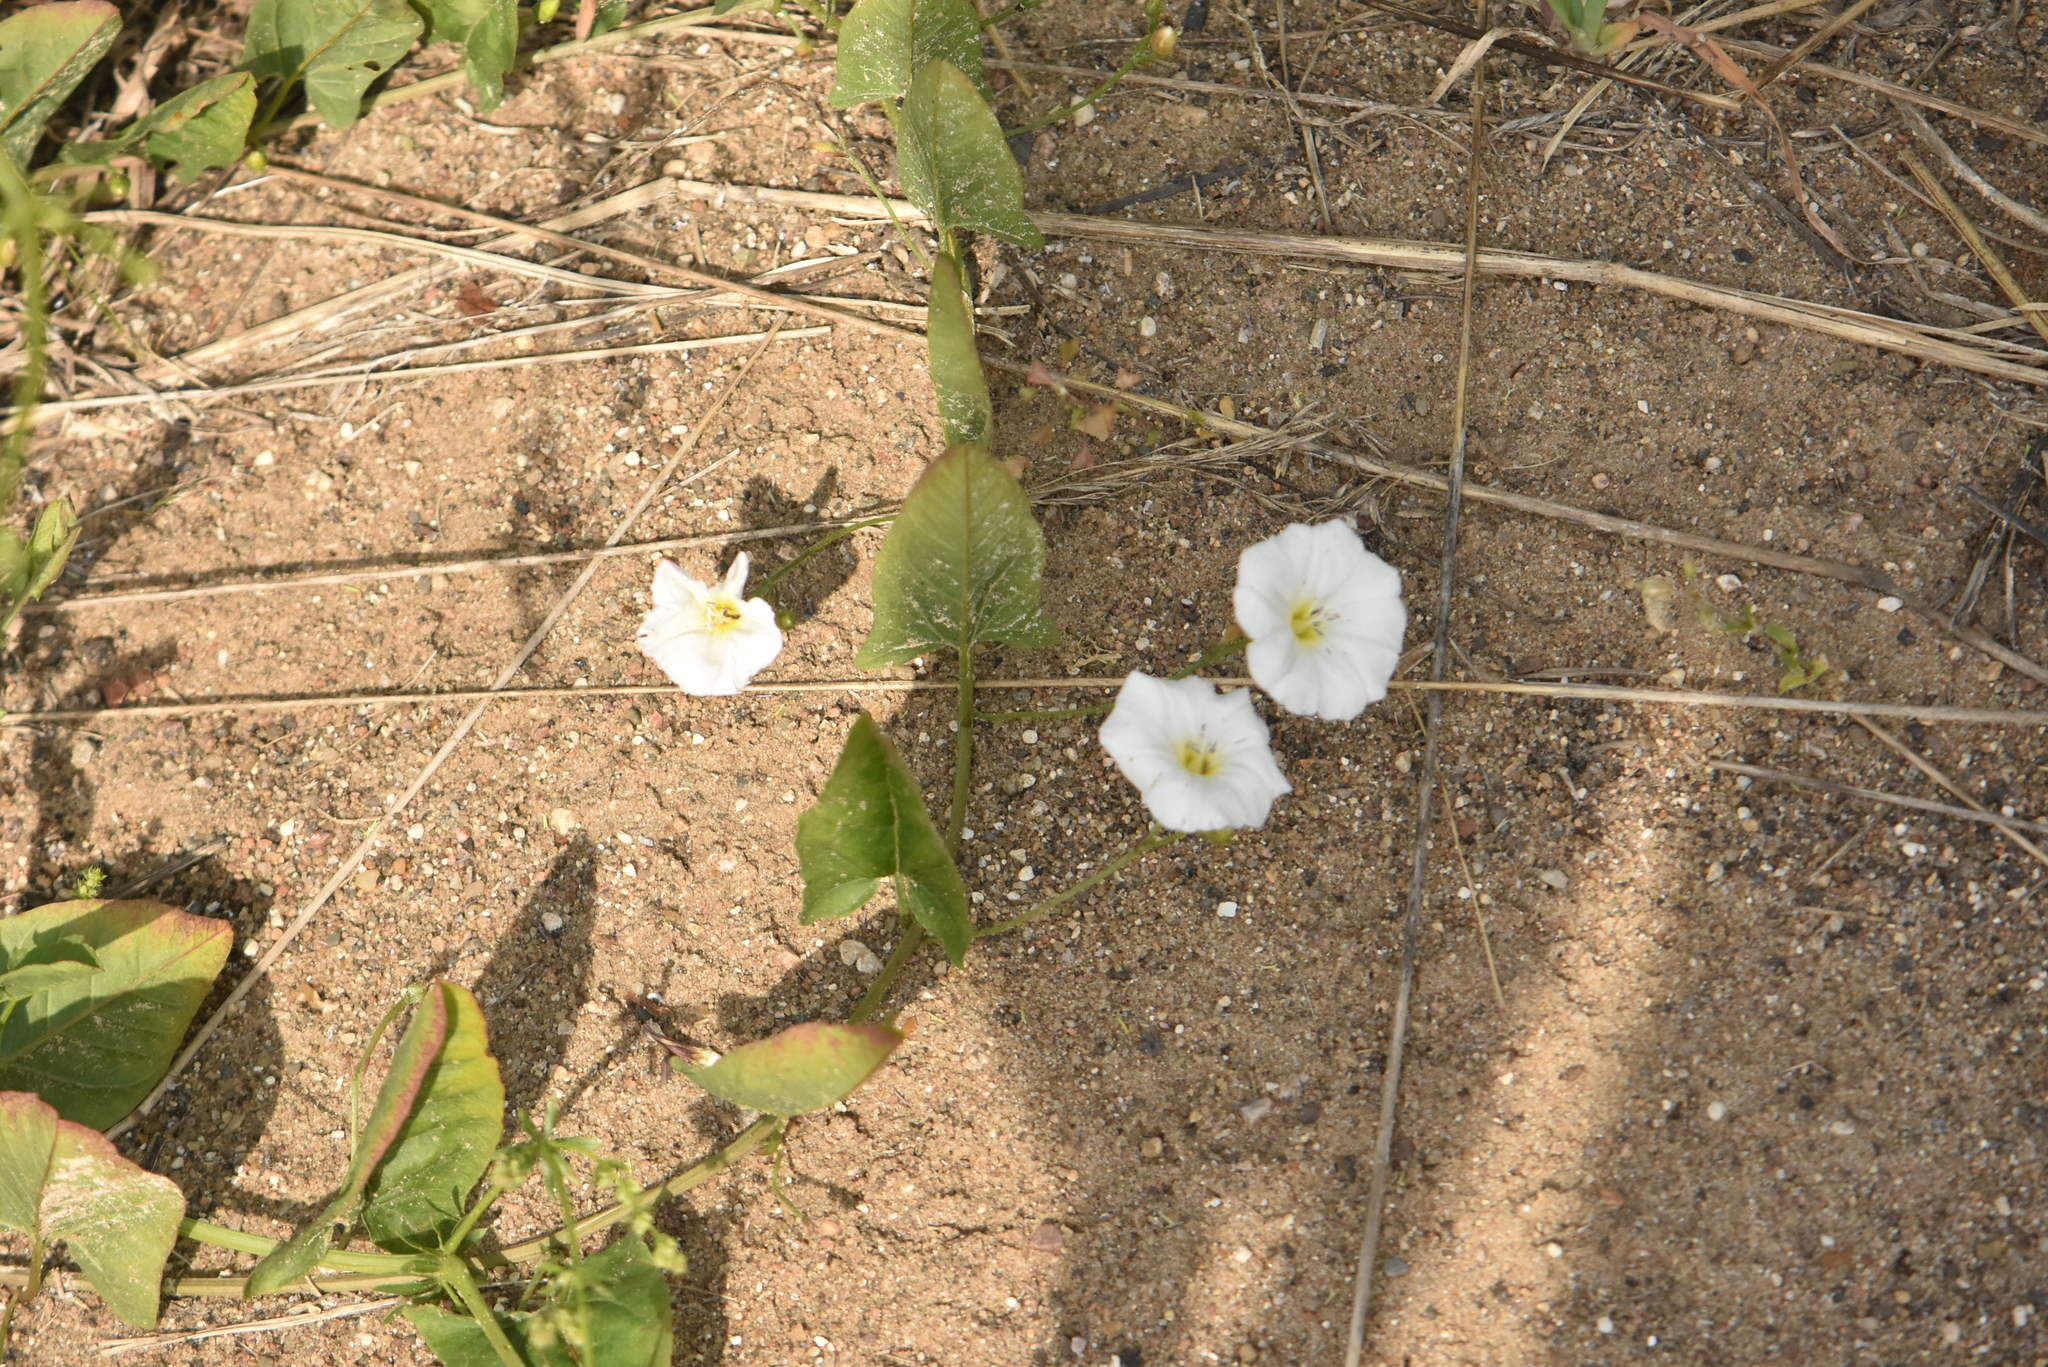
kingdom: Plantae
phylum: Tracheophyta
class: Magnoliopsida
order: Solanales
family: Convolvulaceae
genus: Convolvulus
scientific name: Convolvulus arvensis
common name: Field bindweed
